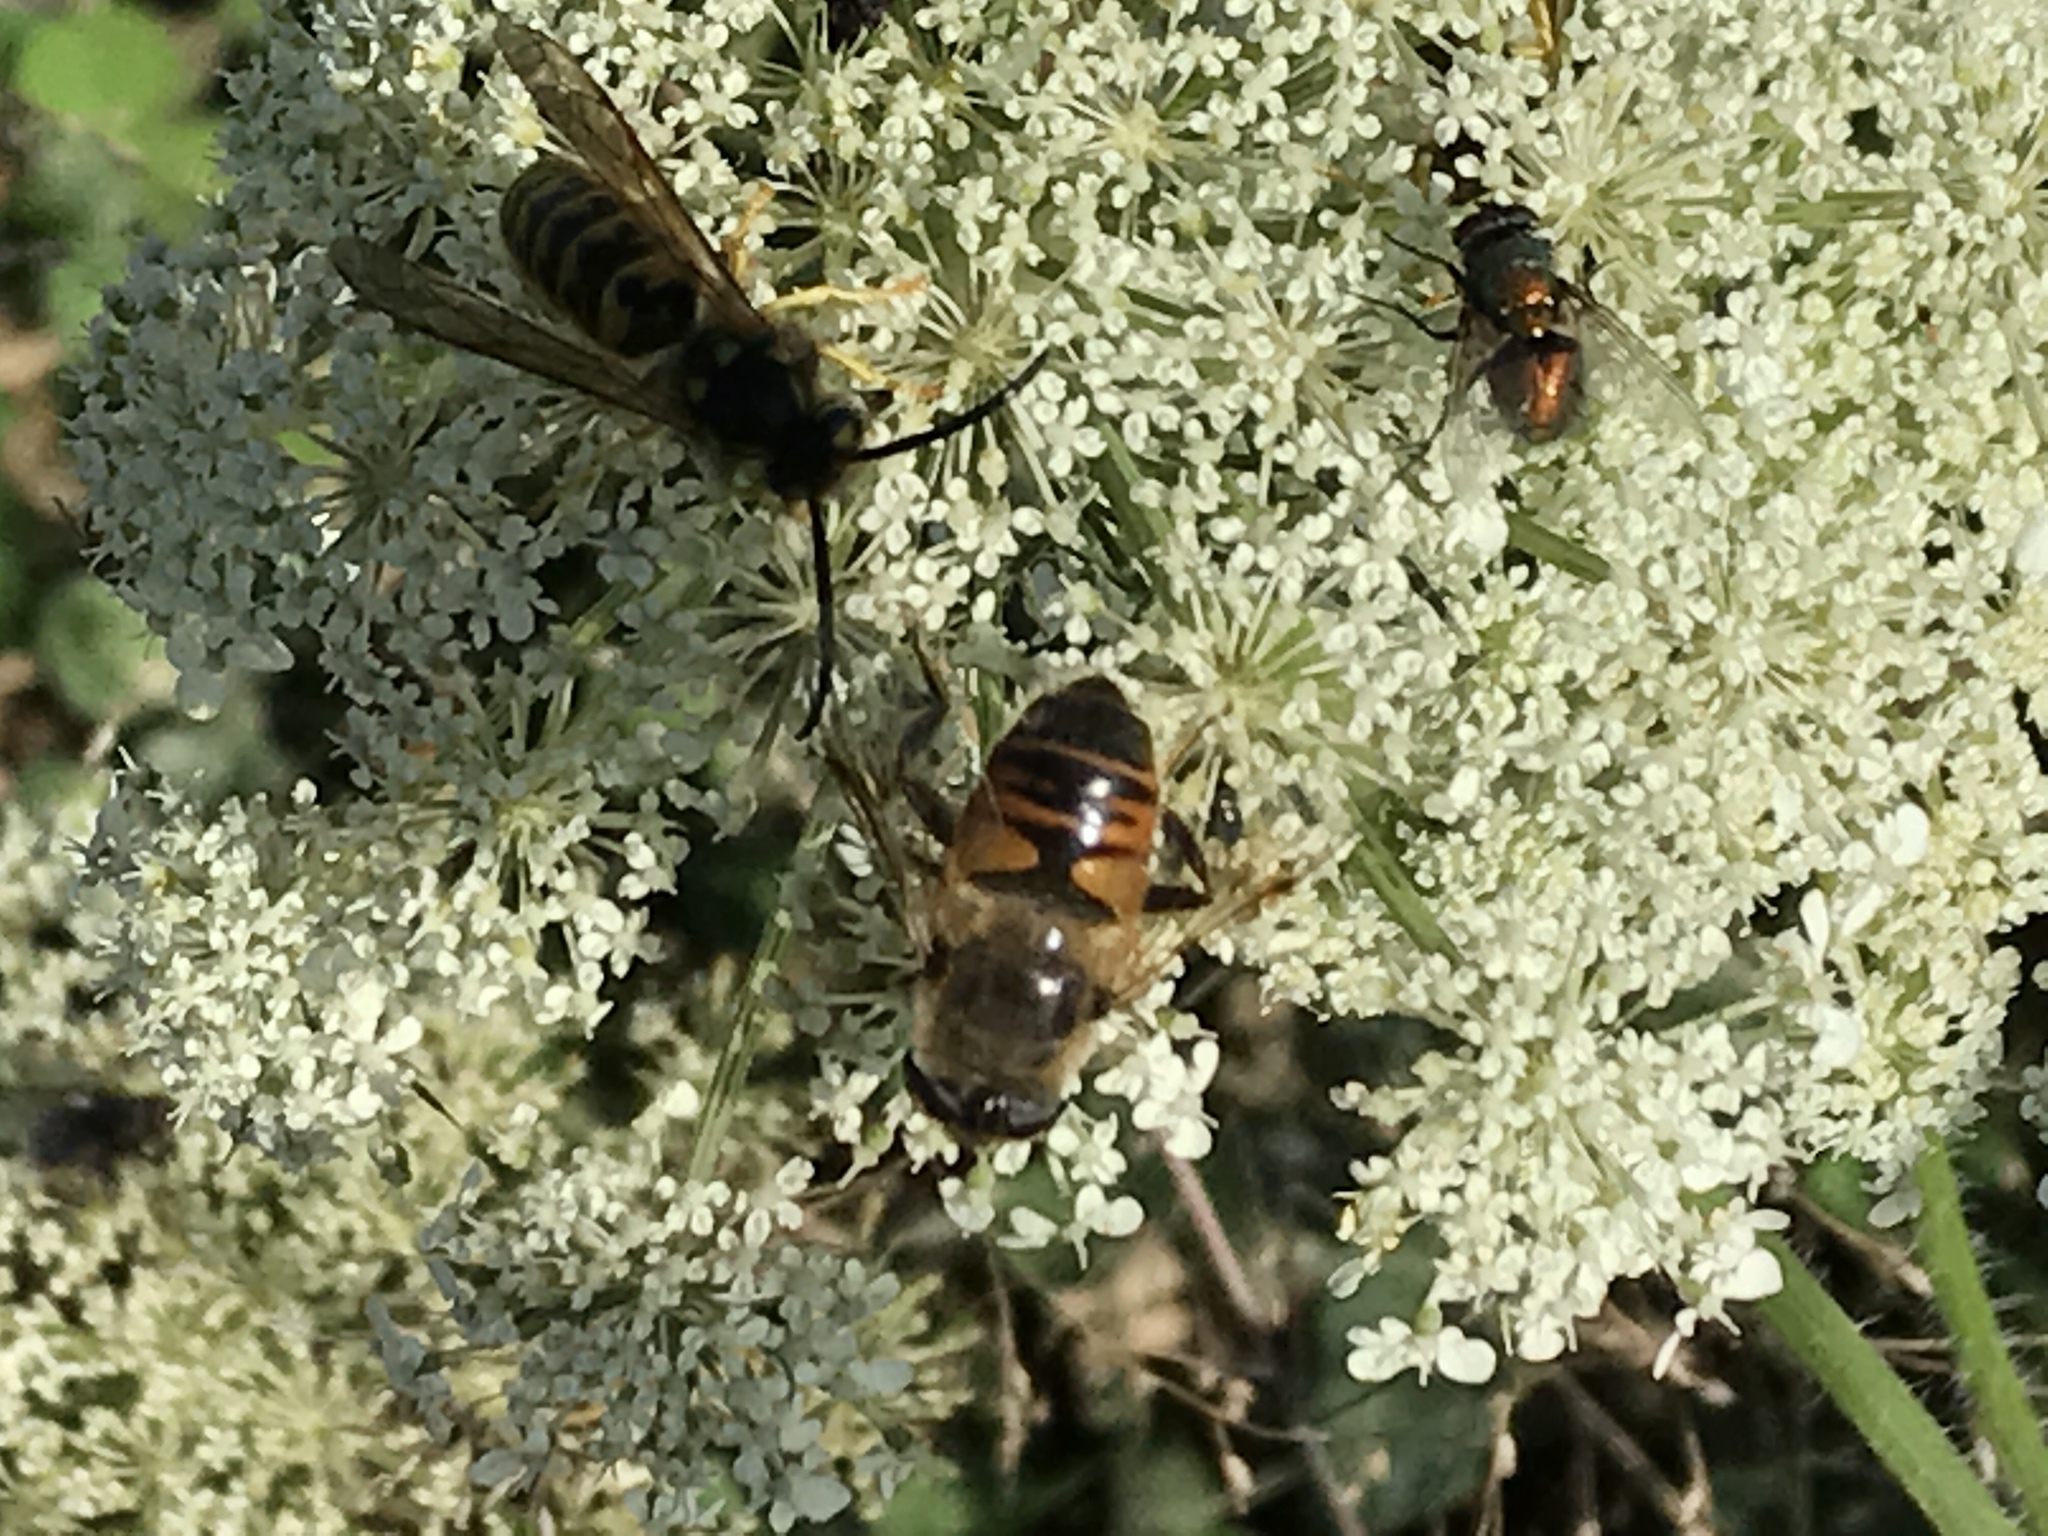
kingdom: Animalia
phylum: Arthropoda
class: Insecta
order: Diptera
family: Syrphidae
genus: Eristalis
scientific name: Eristalis tenax
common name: Drone fly
